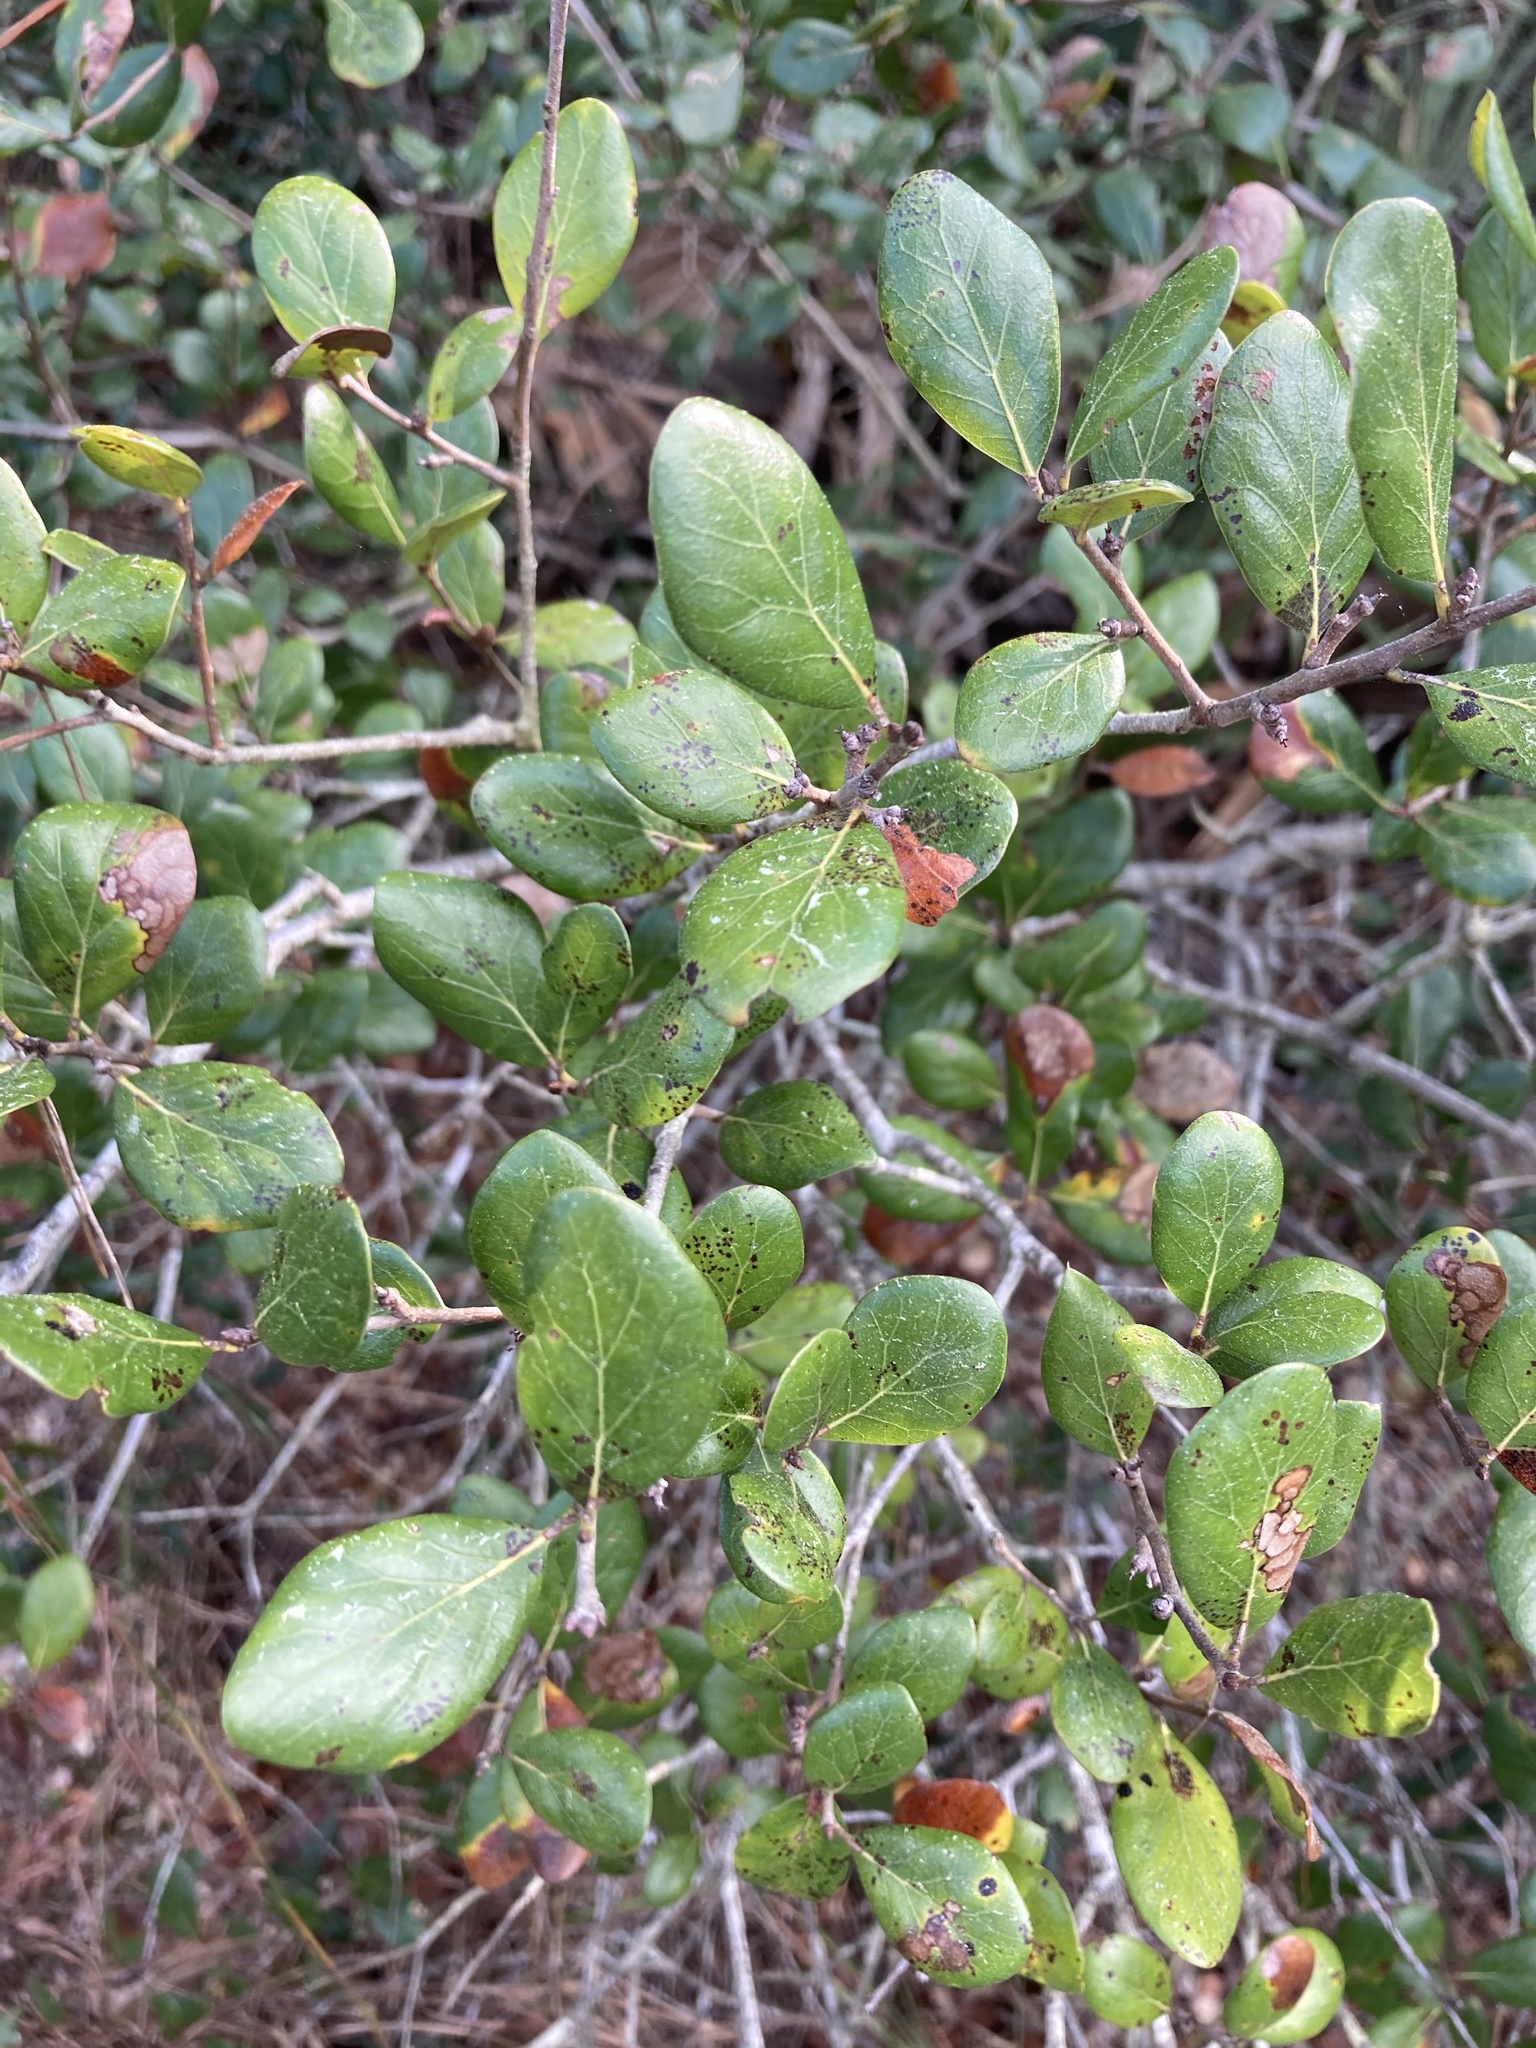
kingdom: Plantae
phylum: Tracheophyta
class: Magnoliopsida
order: Fagales
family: Fagaceae
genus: Quercus
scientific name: Quercus myrtifolia
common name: Myrtle oak
